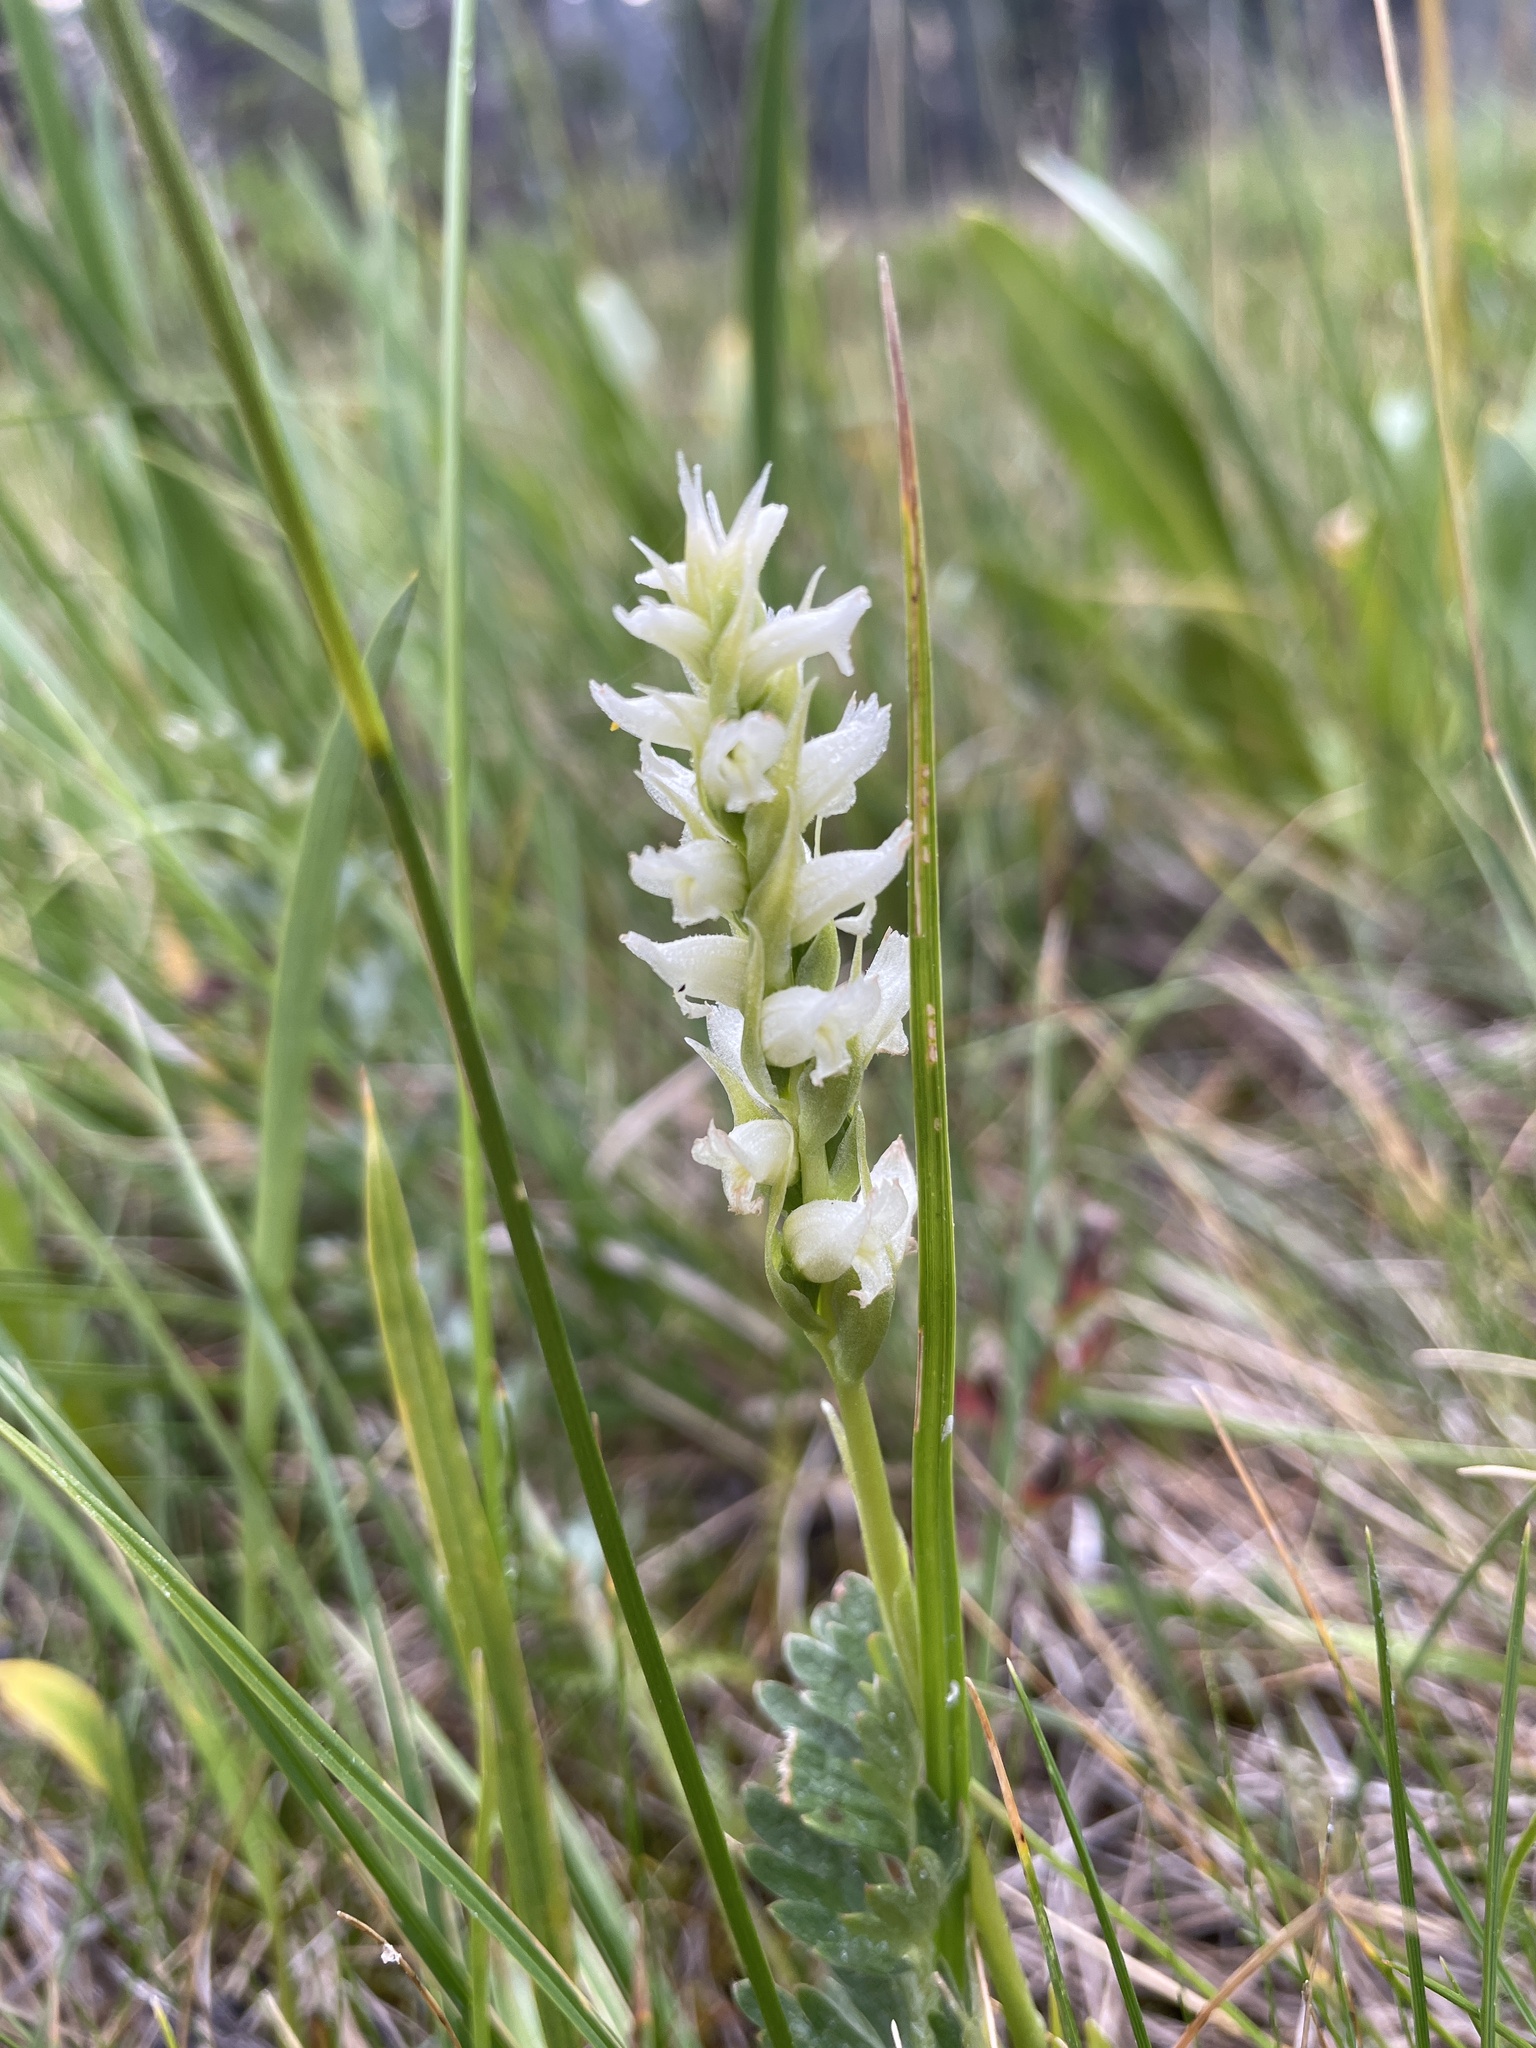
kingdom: Plantae
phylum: Tracheophyta
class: Liliopsida
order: Asparagales
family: Orchidaceae
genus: Spiranthes
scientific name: Spiranthes romanzoffiana
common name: Irish lady's-tresses
